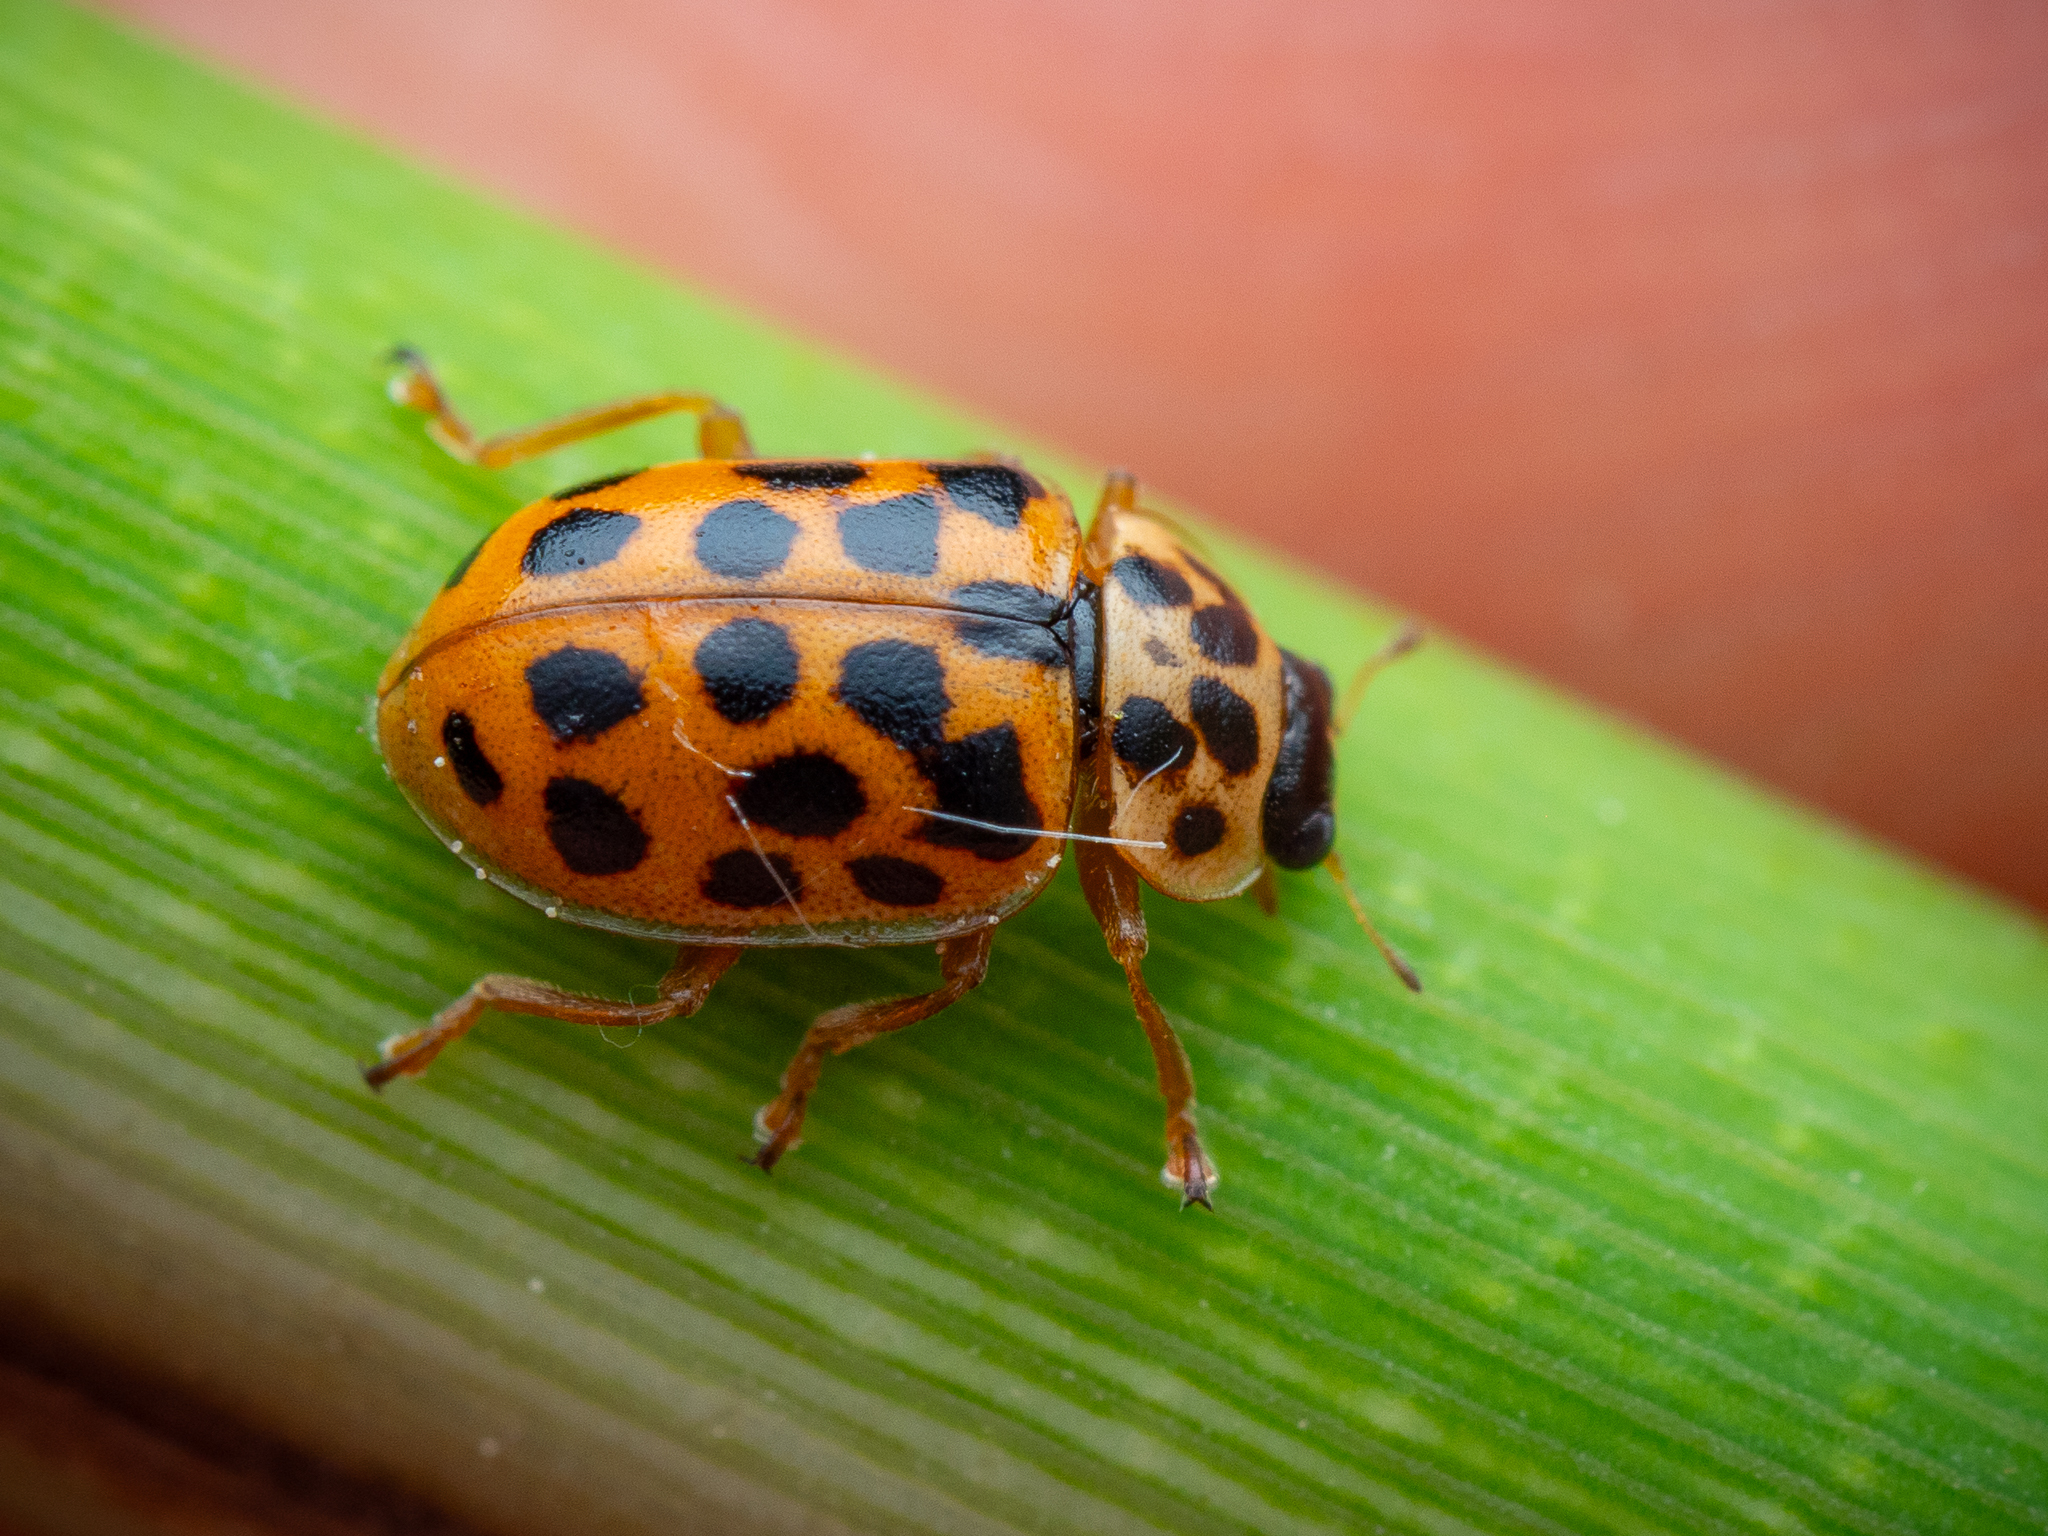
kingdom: Animalia
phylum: Arthropoda
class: Insecta
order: Coleoptera
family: Coccinellidae
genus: Anisosticta
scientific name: Anisosticta novemdecimpunctata
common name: Water ladybird
